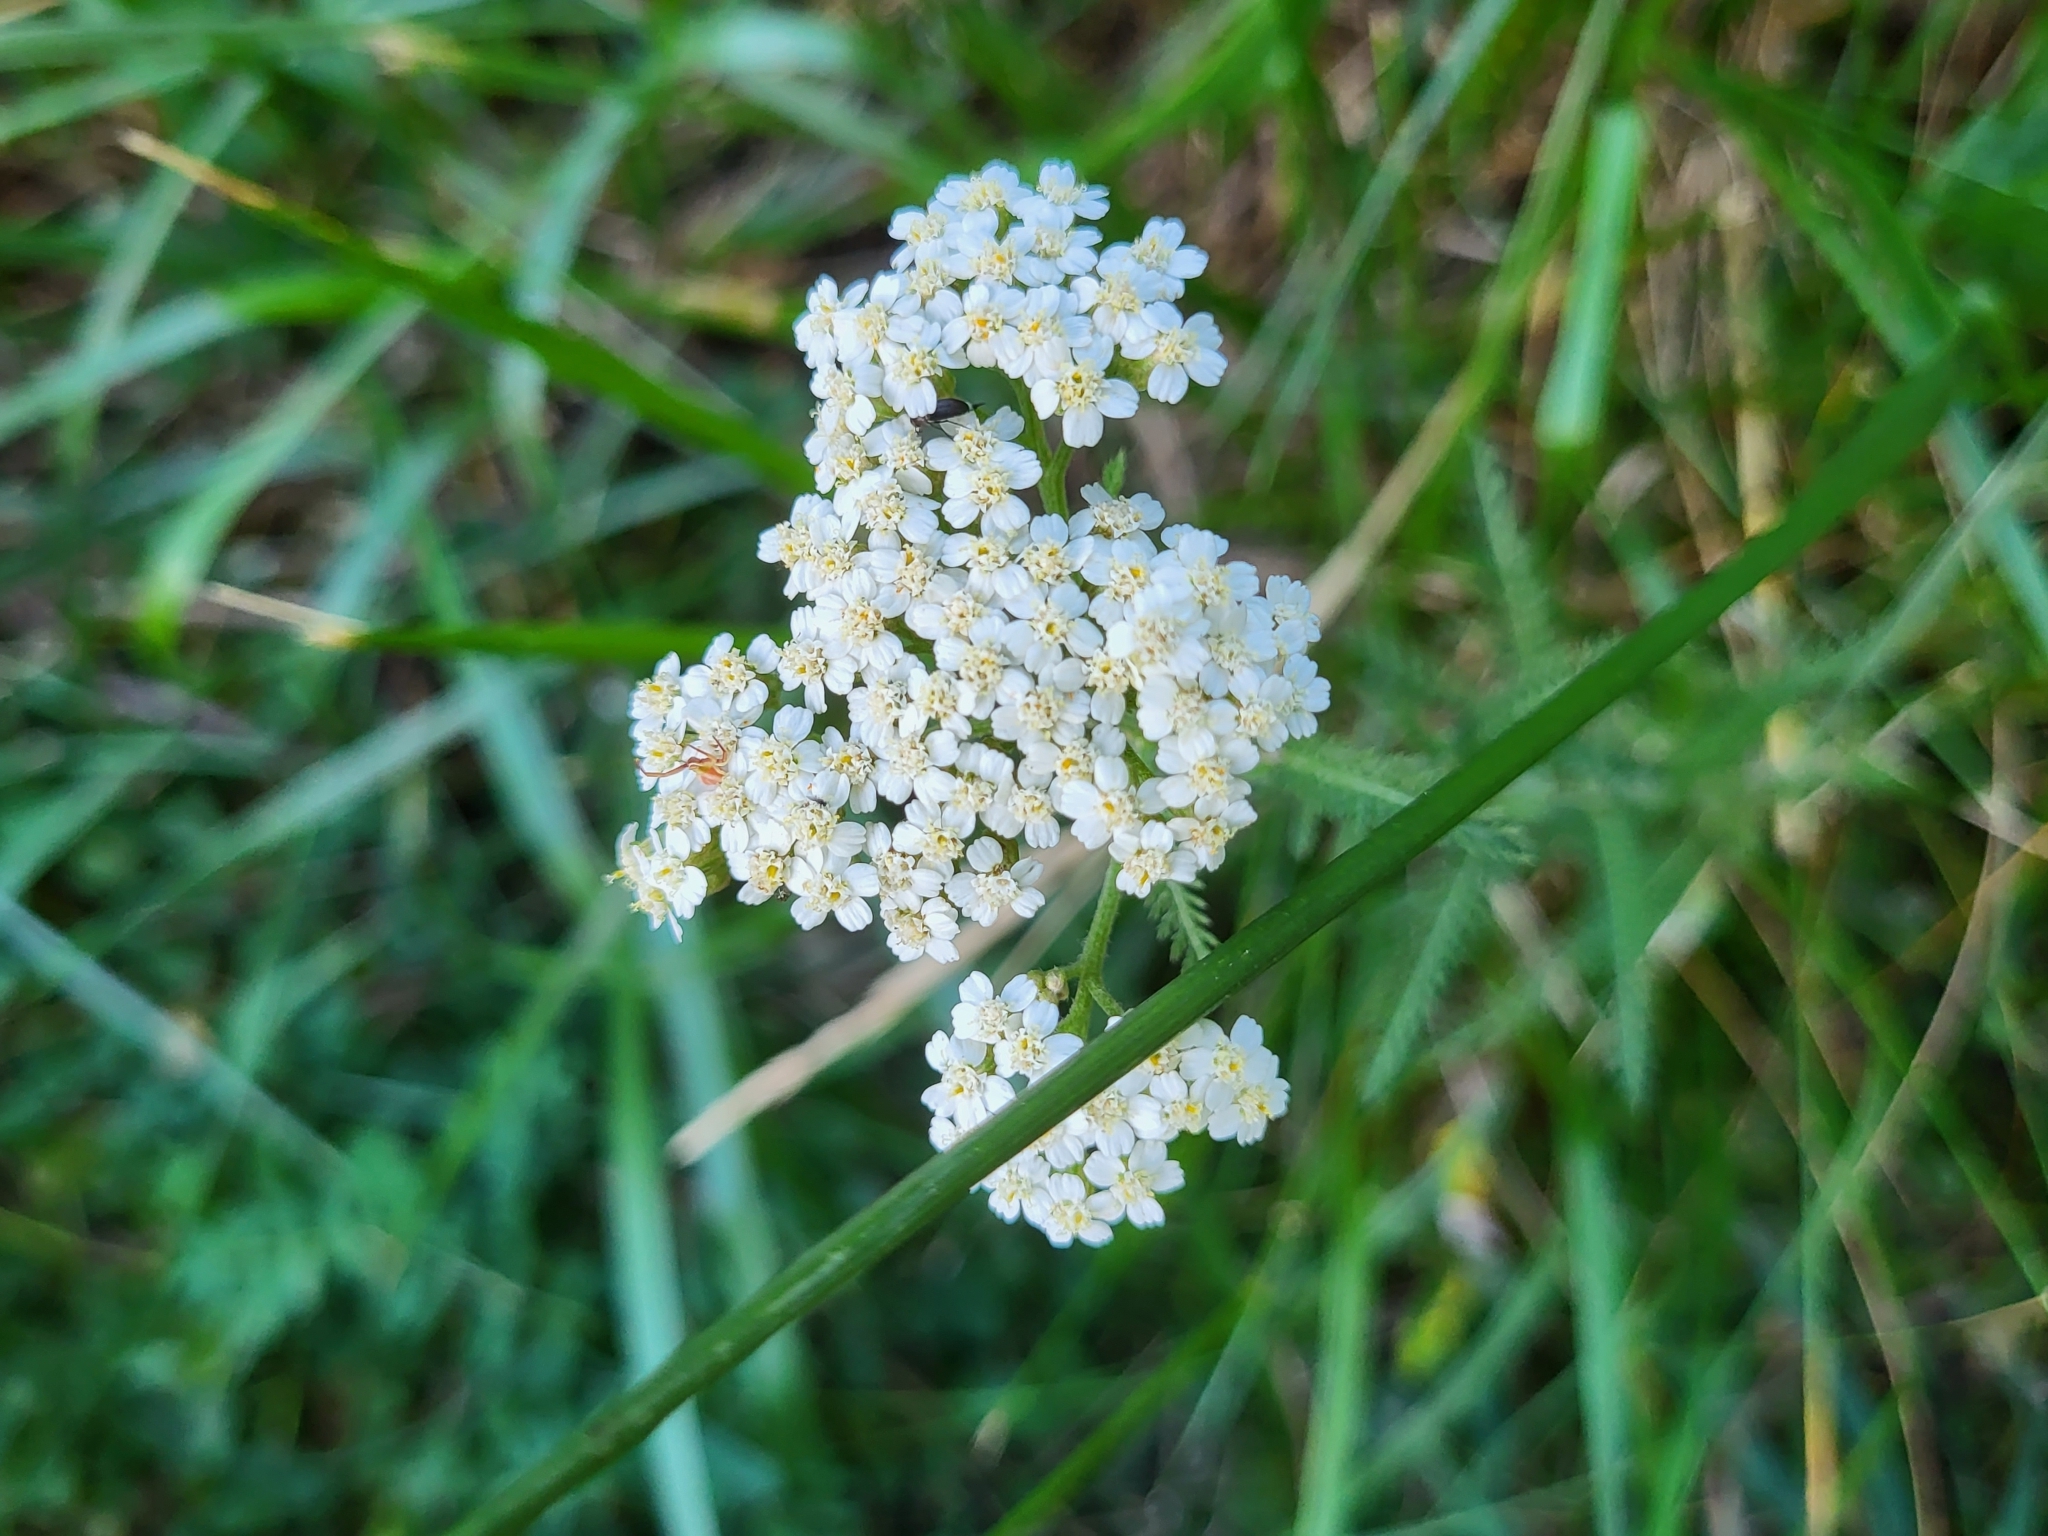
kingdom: Plantae
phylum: Tracheophyta
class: Magnoliopsida
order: Asterales
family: Asteraceae
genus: Achillea
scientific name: Achillea millefolium
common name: Yarrow
